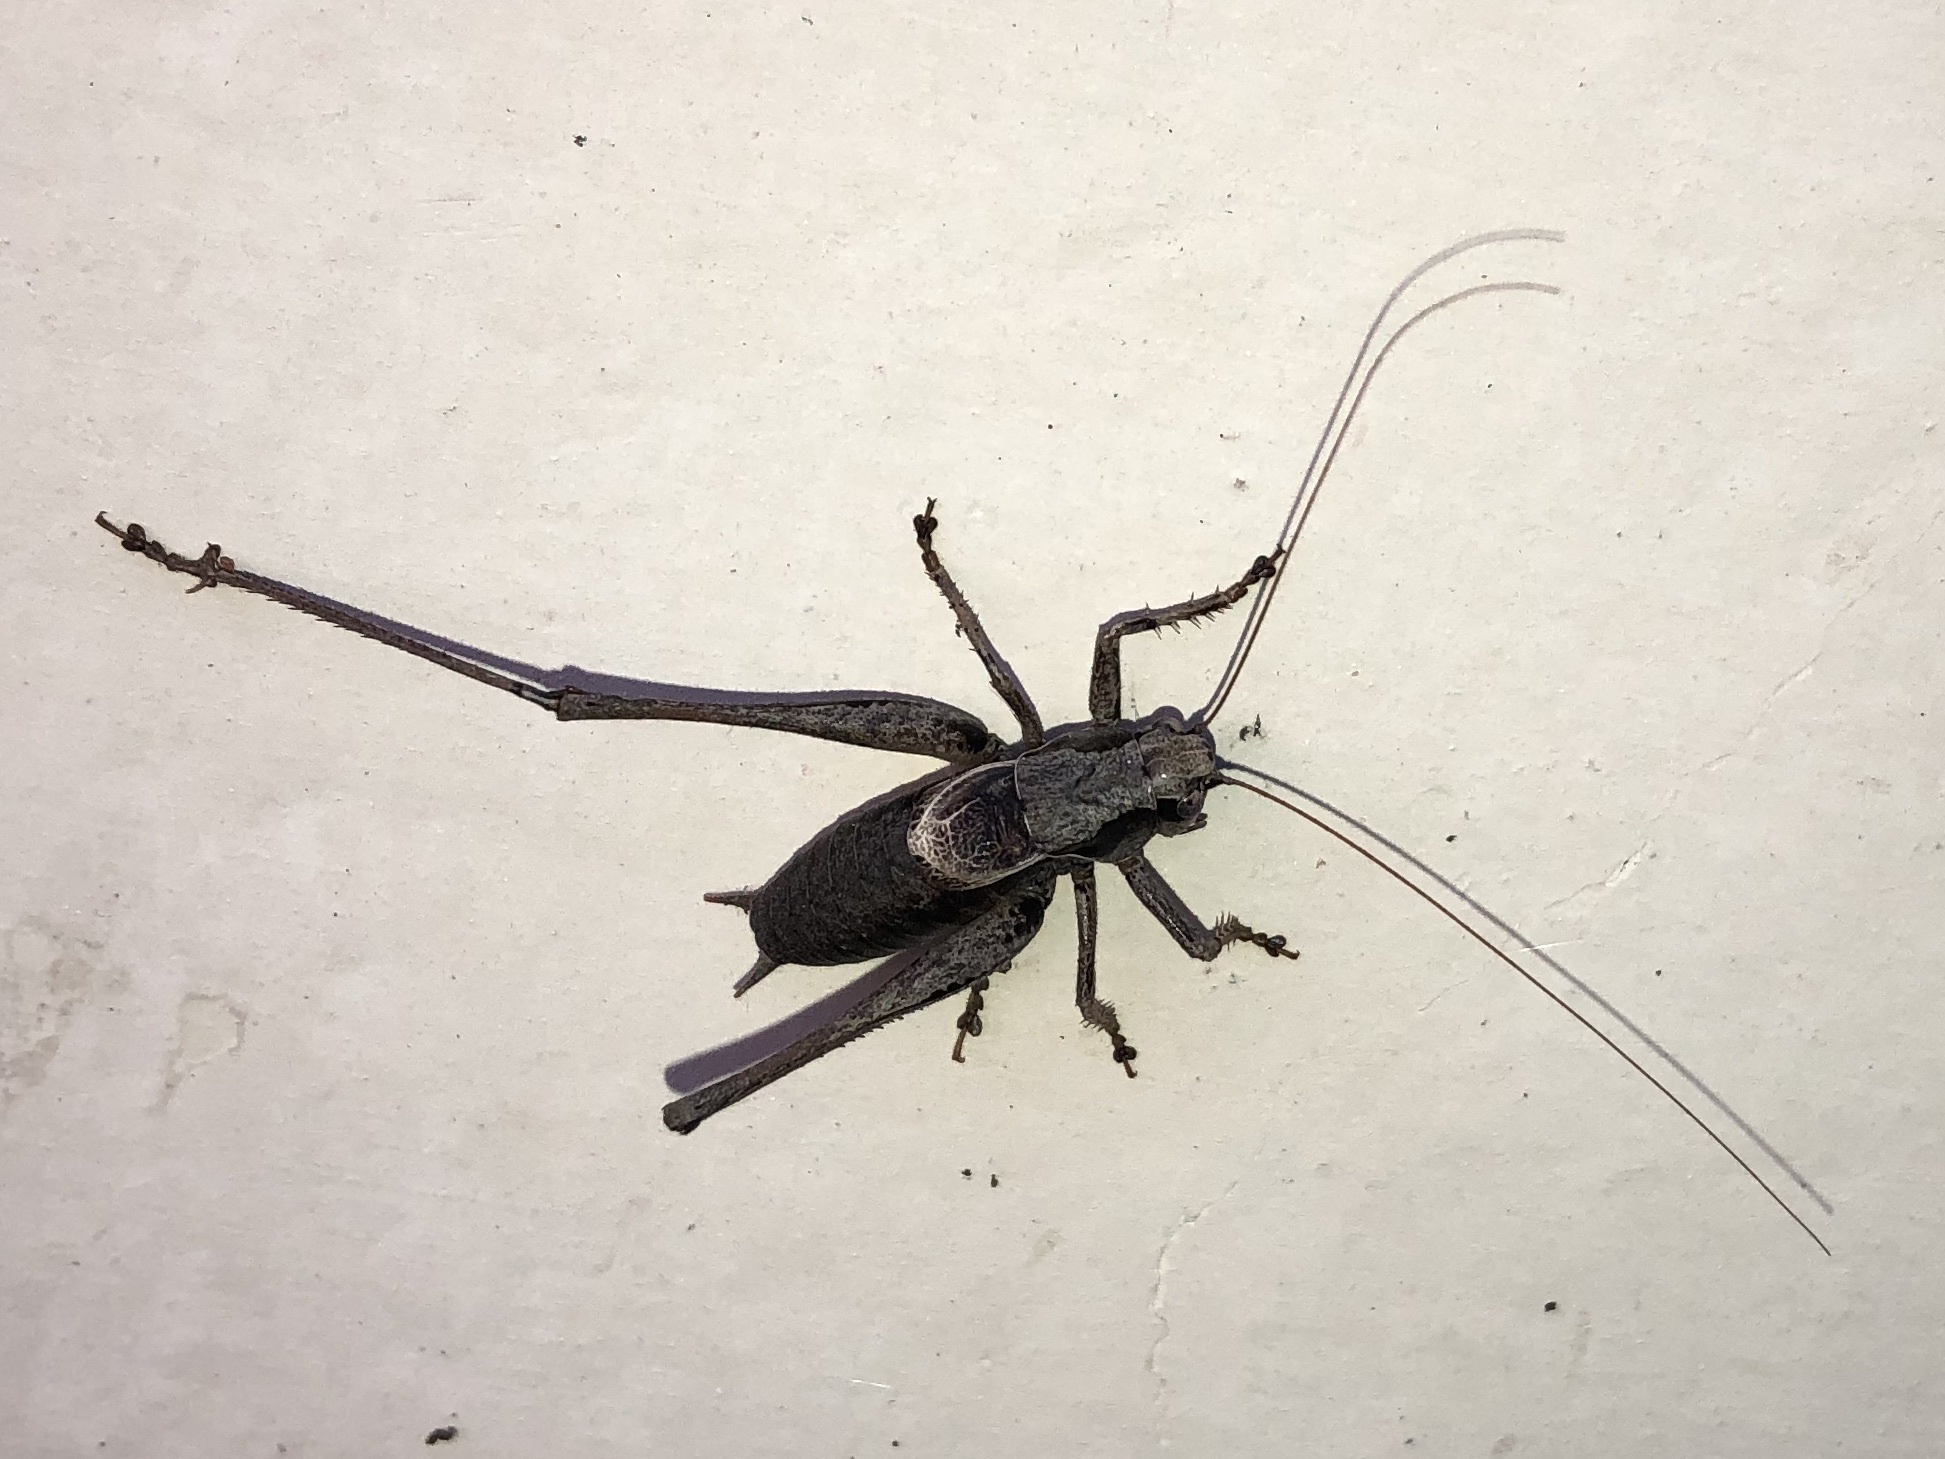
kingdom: Animalia
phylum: Arthropoda
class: Insecta
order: Orthoptera
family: Tettigoniidae
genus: Pholidoptera
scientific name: Pholidoptera griseoaptera
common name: Dark bush-cricket
